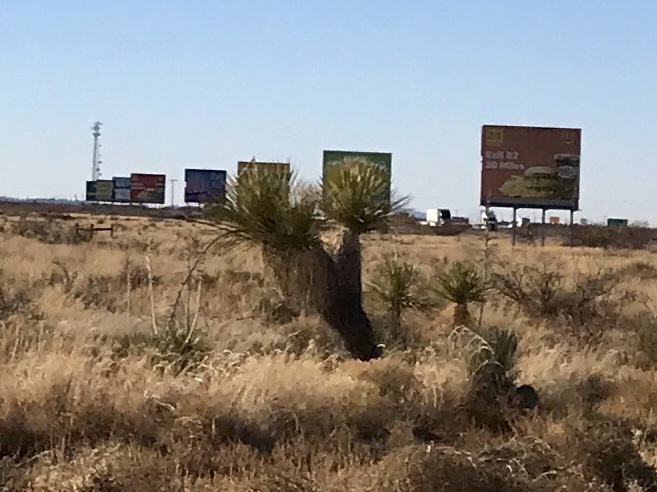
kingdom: Plantae
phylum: Tracheophyta
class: Liliopsida
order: Asparagales
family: Asparagaceae
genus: Yucca
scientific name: Yucca elata
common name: Palmella
